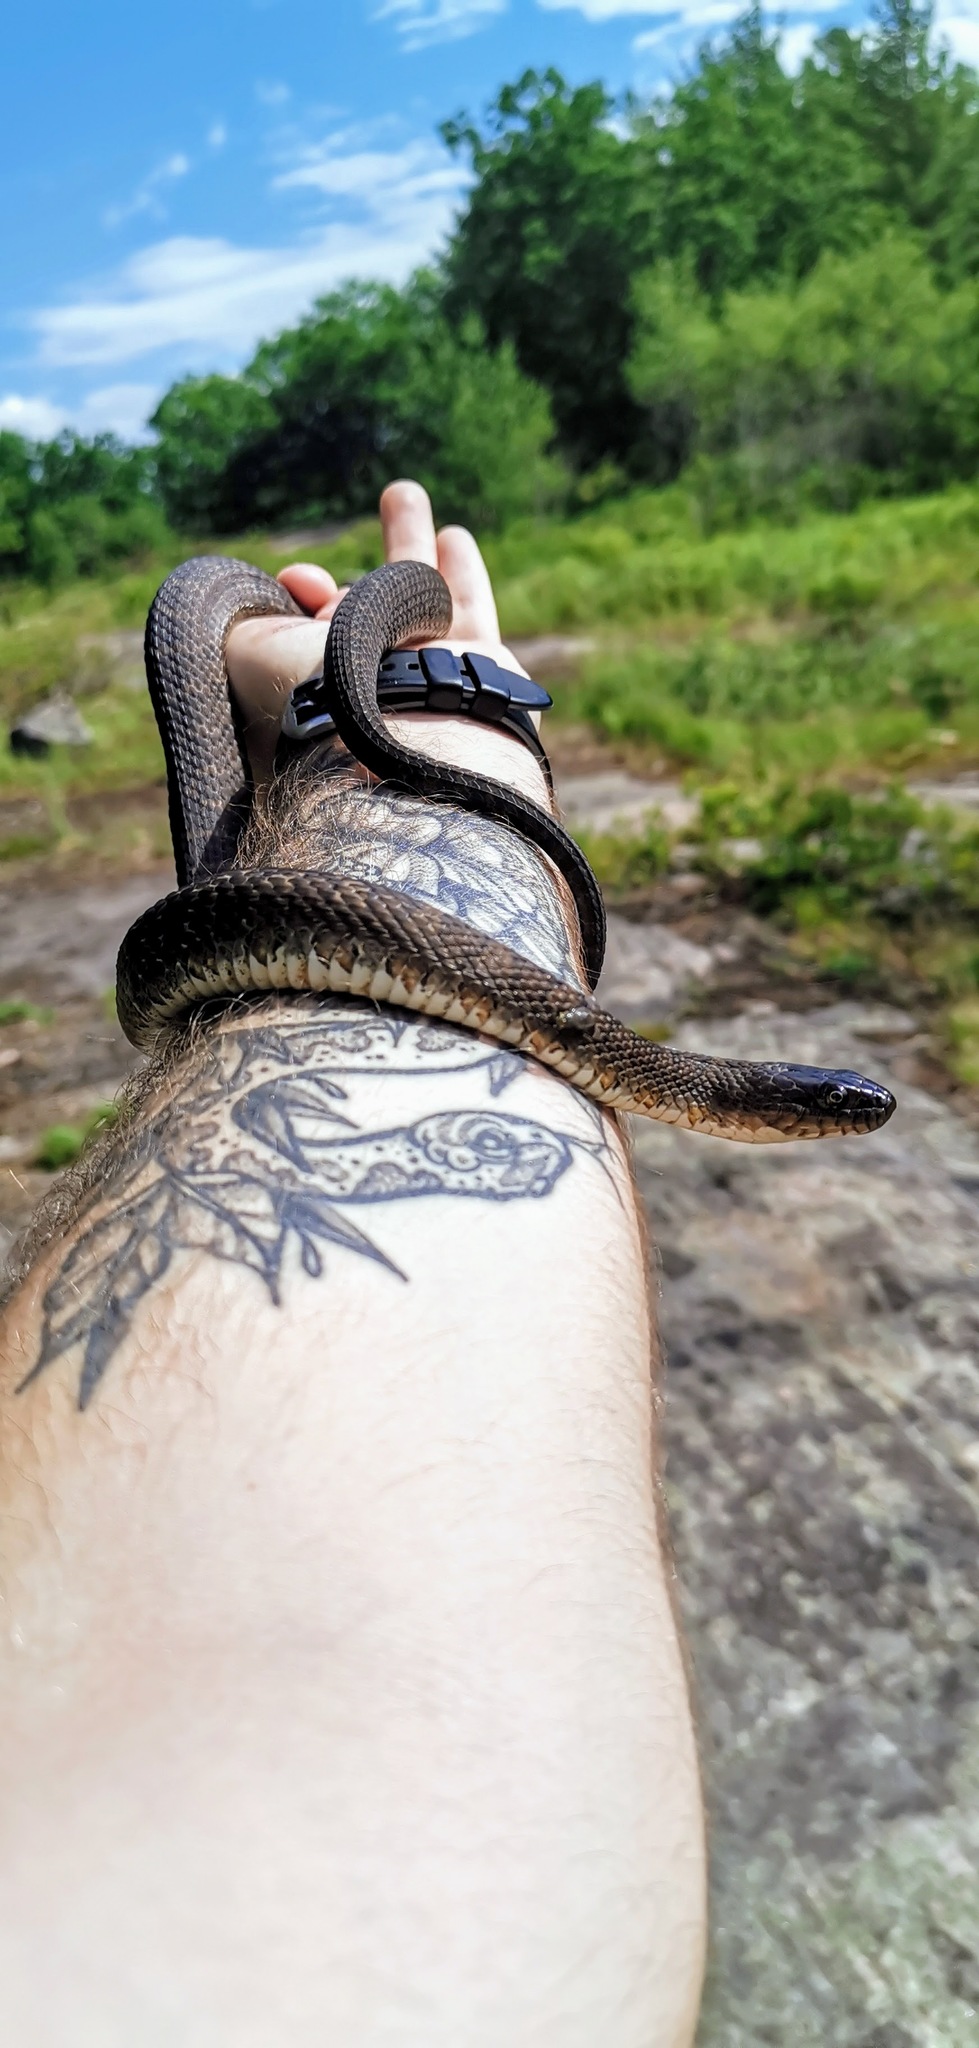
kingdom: Animalia
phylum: Chordata
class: Squamata
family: Colubridae
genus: Nerodia
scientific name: Nerodia sipedon
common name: Northern water snake
